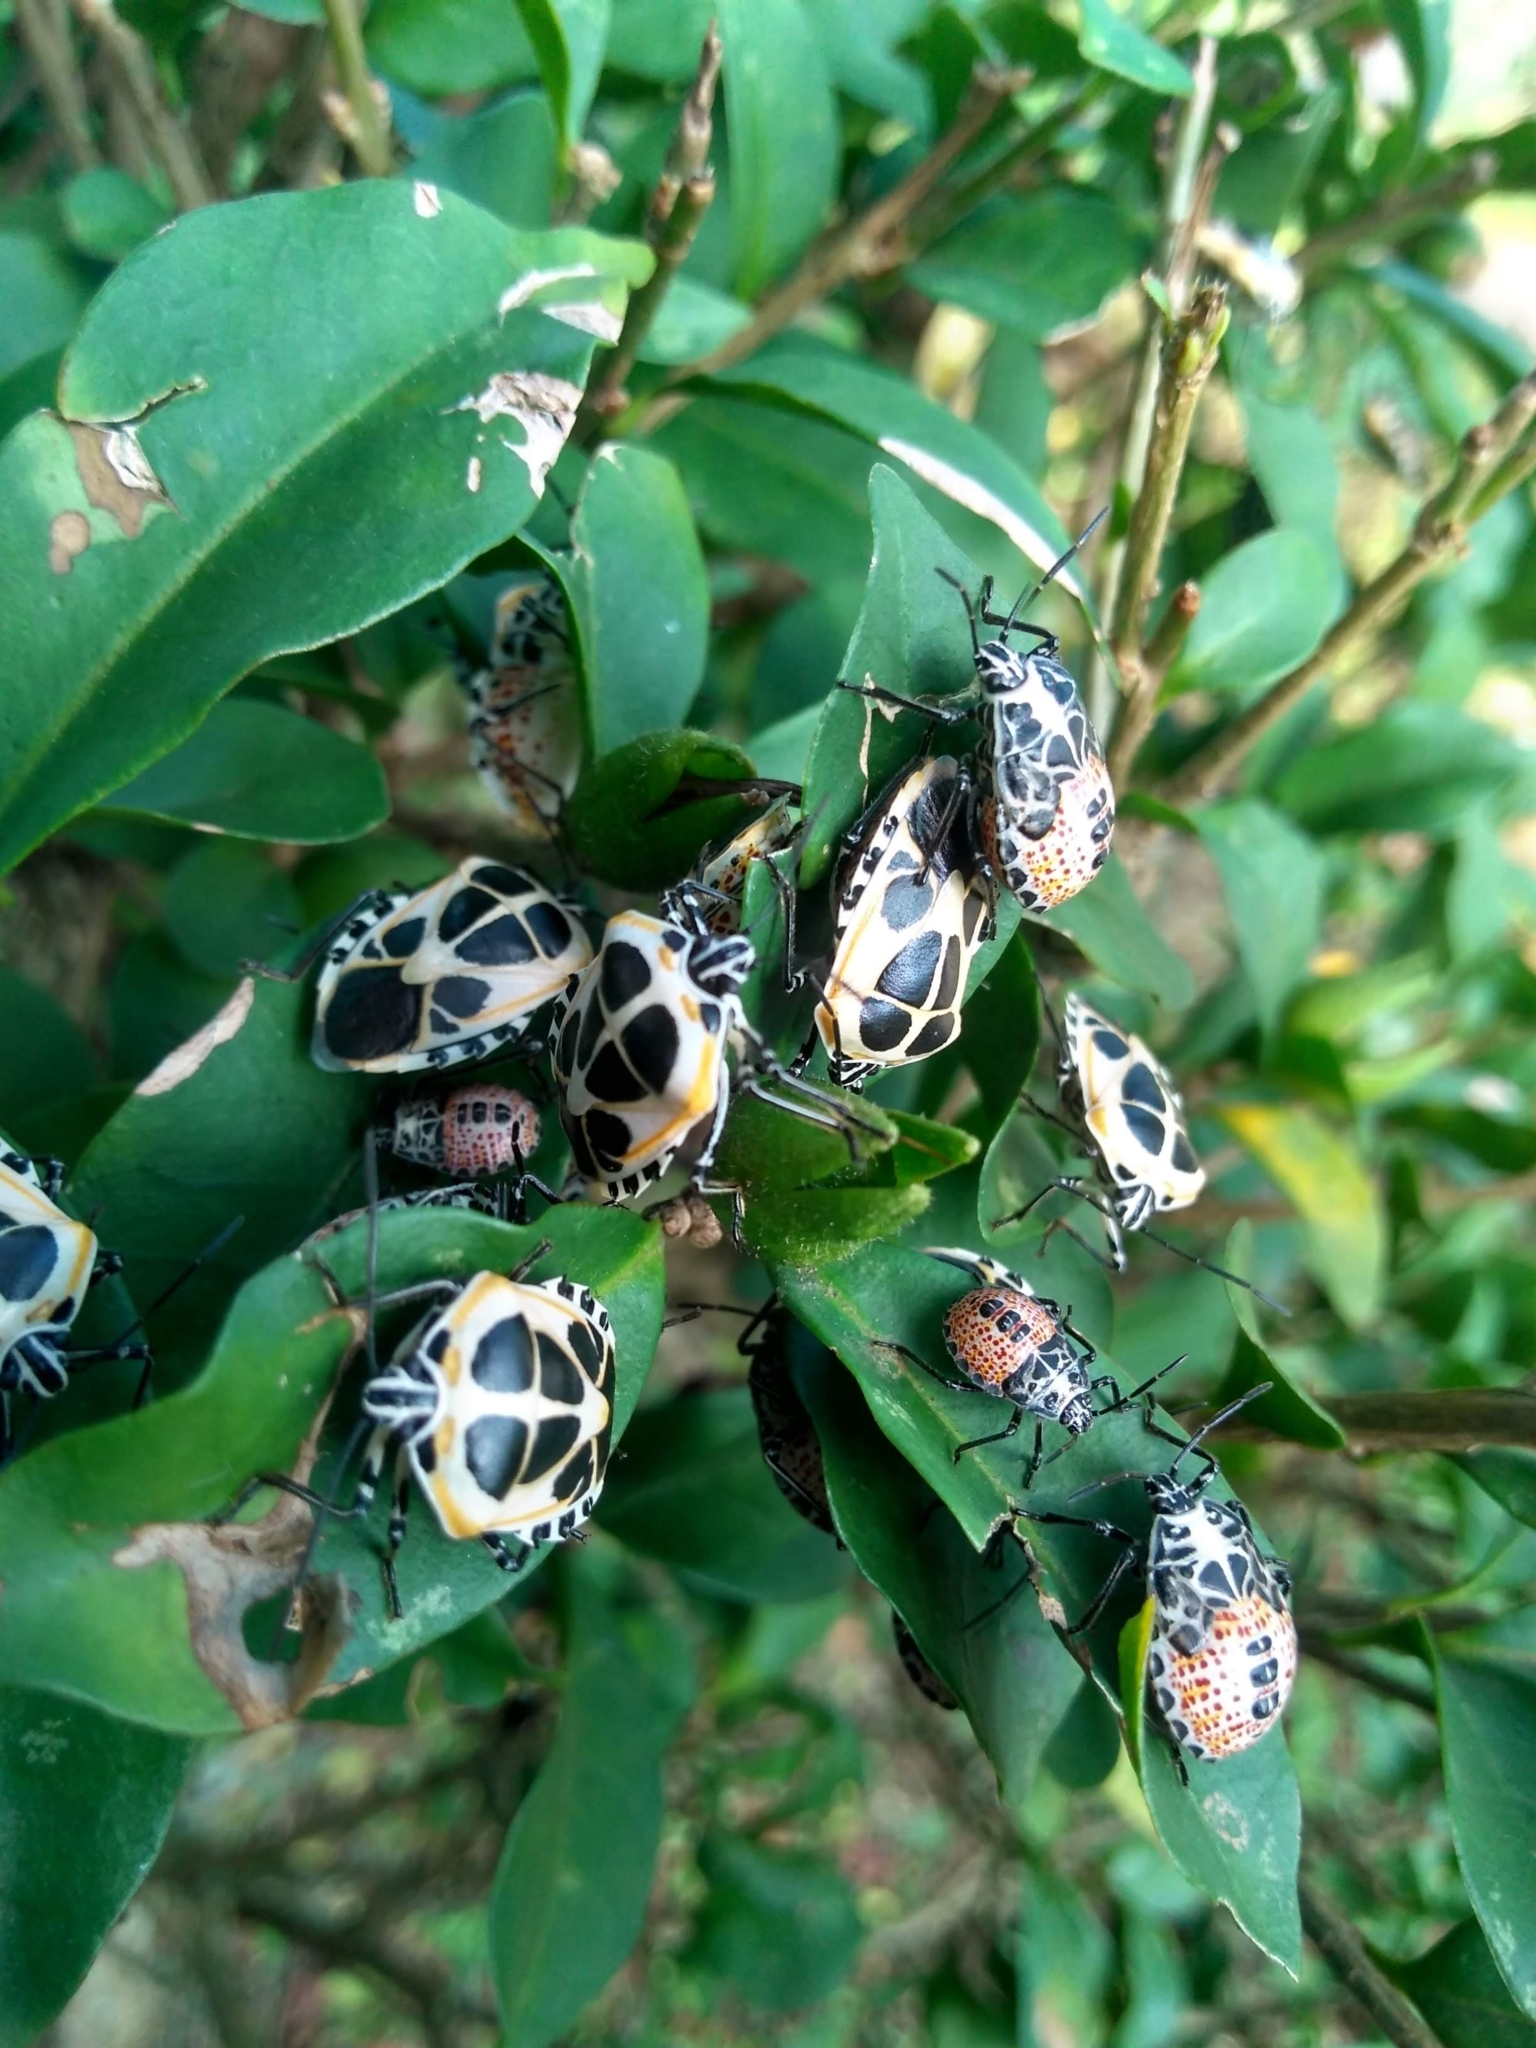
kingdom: Animalia
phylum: Arthropoda
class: Insecta
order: Hemiptera
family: Pentatomidae
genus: Runibia
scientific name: Runibia perspicua
